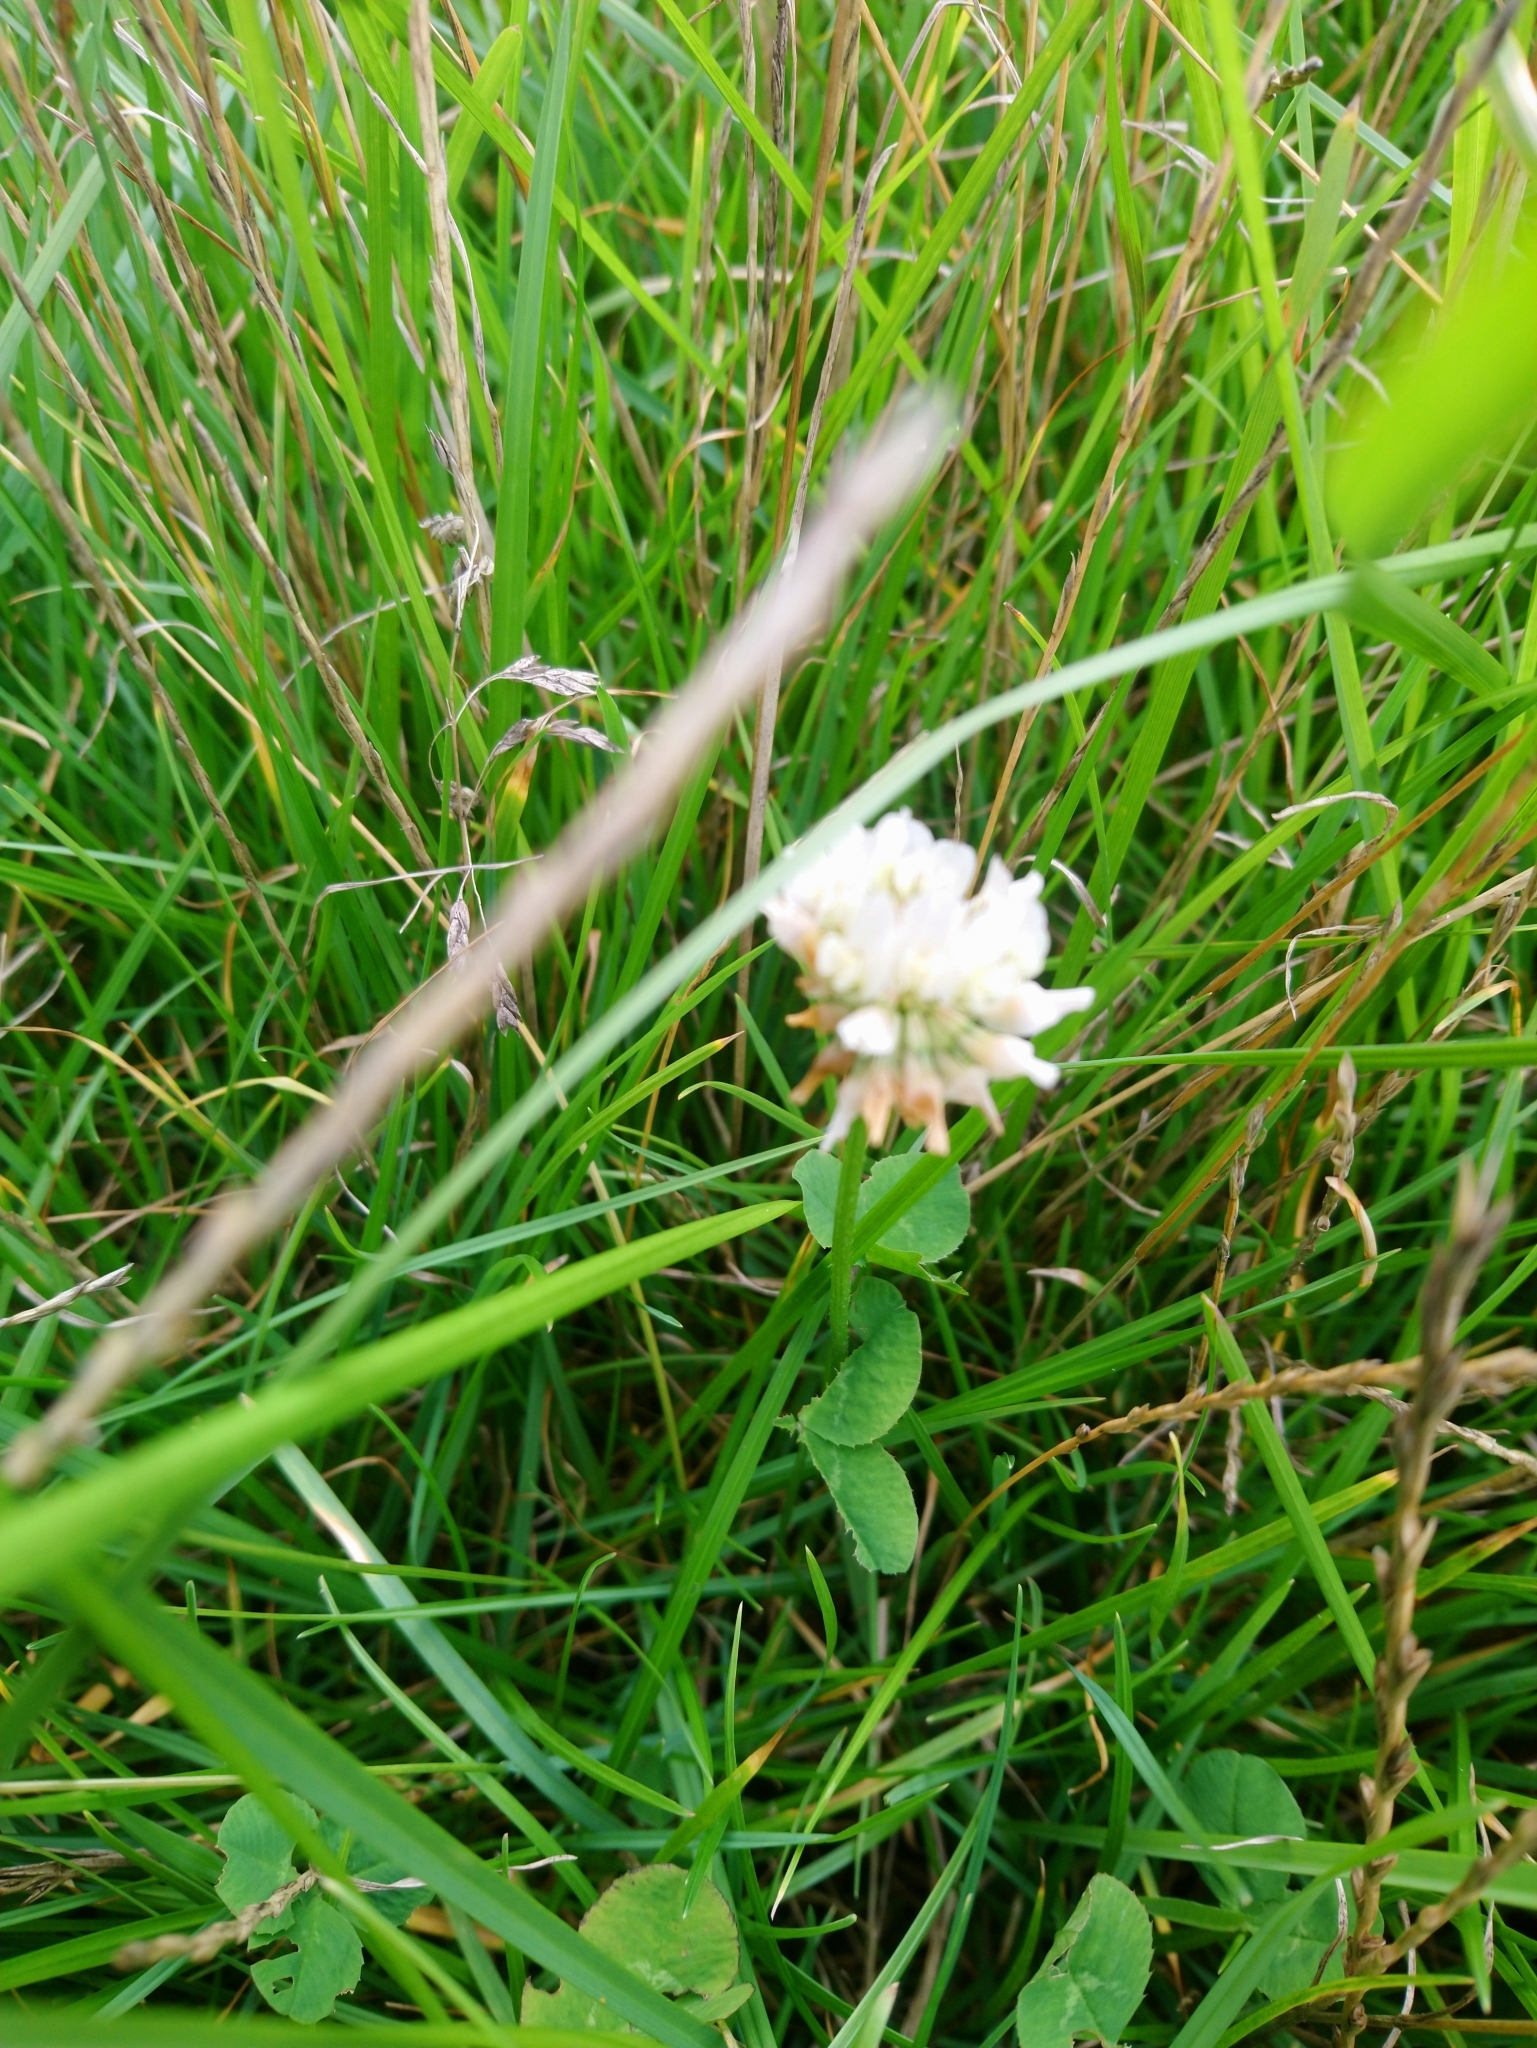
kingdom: Plantae
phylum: Tracheophyta
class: Magnoliopsida
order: Fabales
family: Fabaceae
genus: Trifolium
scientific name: Trifolium repens
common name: White clover
